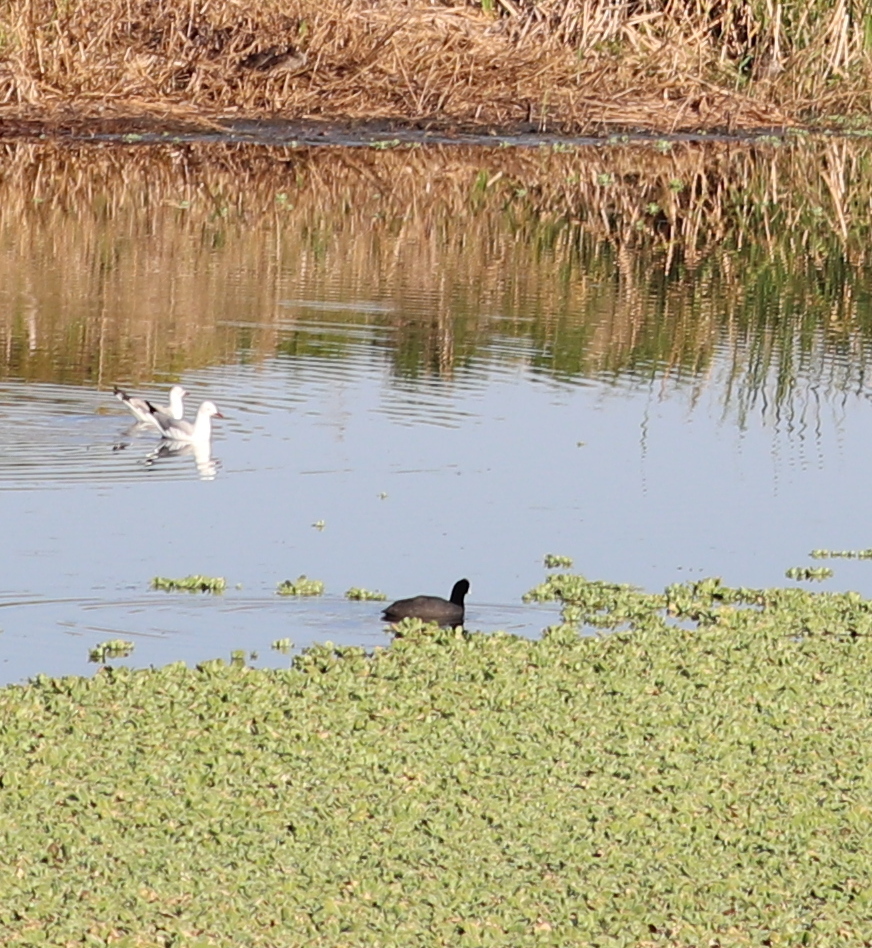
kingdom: Animalia
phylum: Chordata
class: Aves
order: Gruiformes
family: Rallidae
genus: Fulica
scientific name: Fulica cristata
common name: Red-knobbed coot
